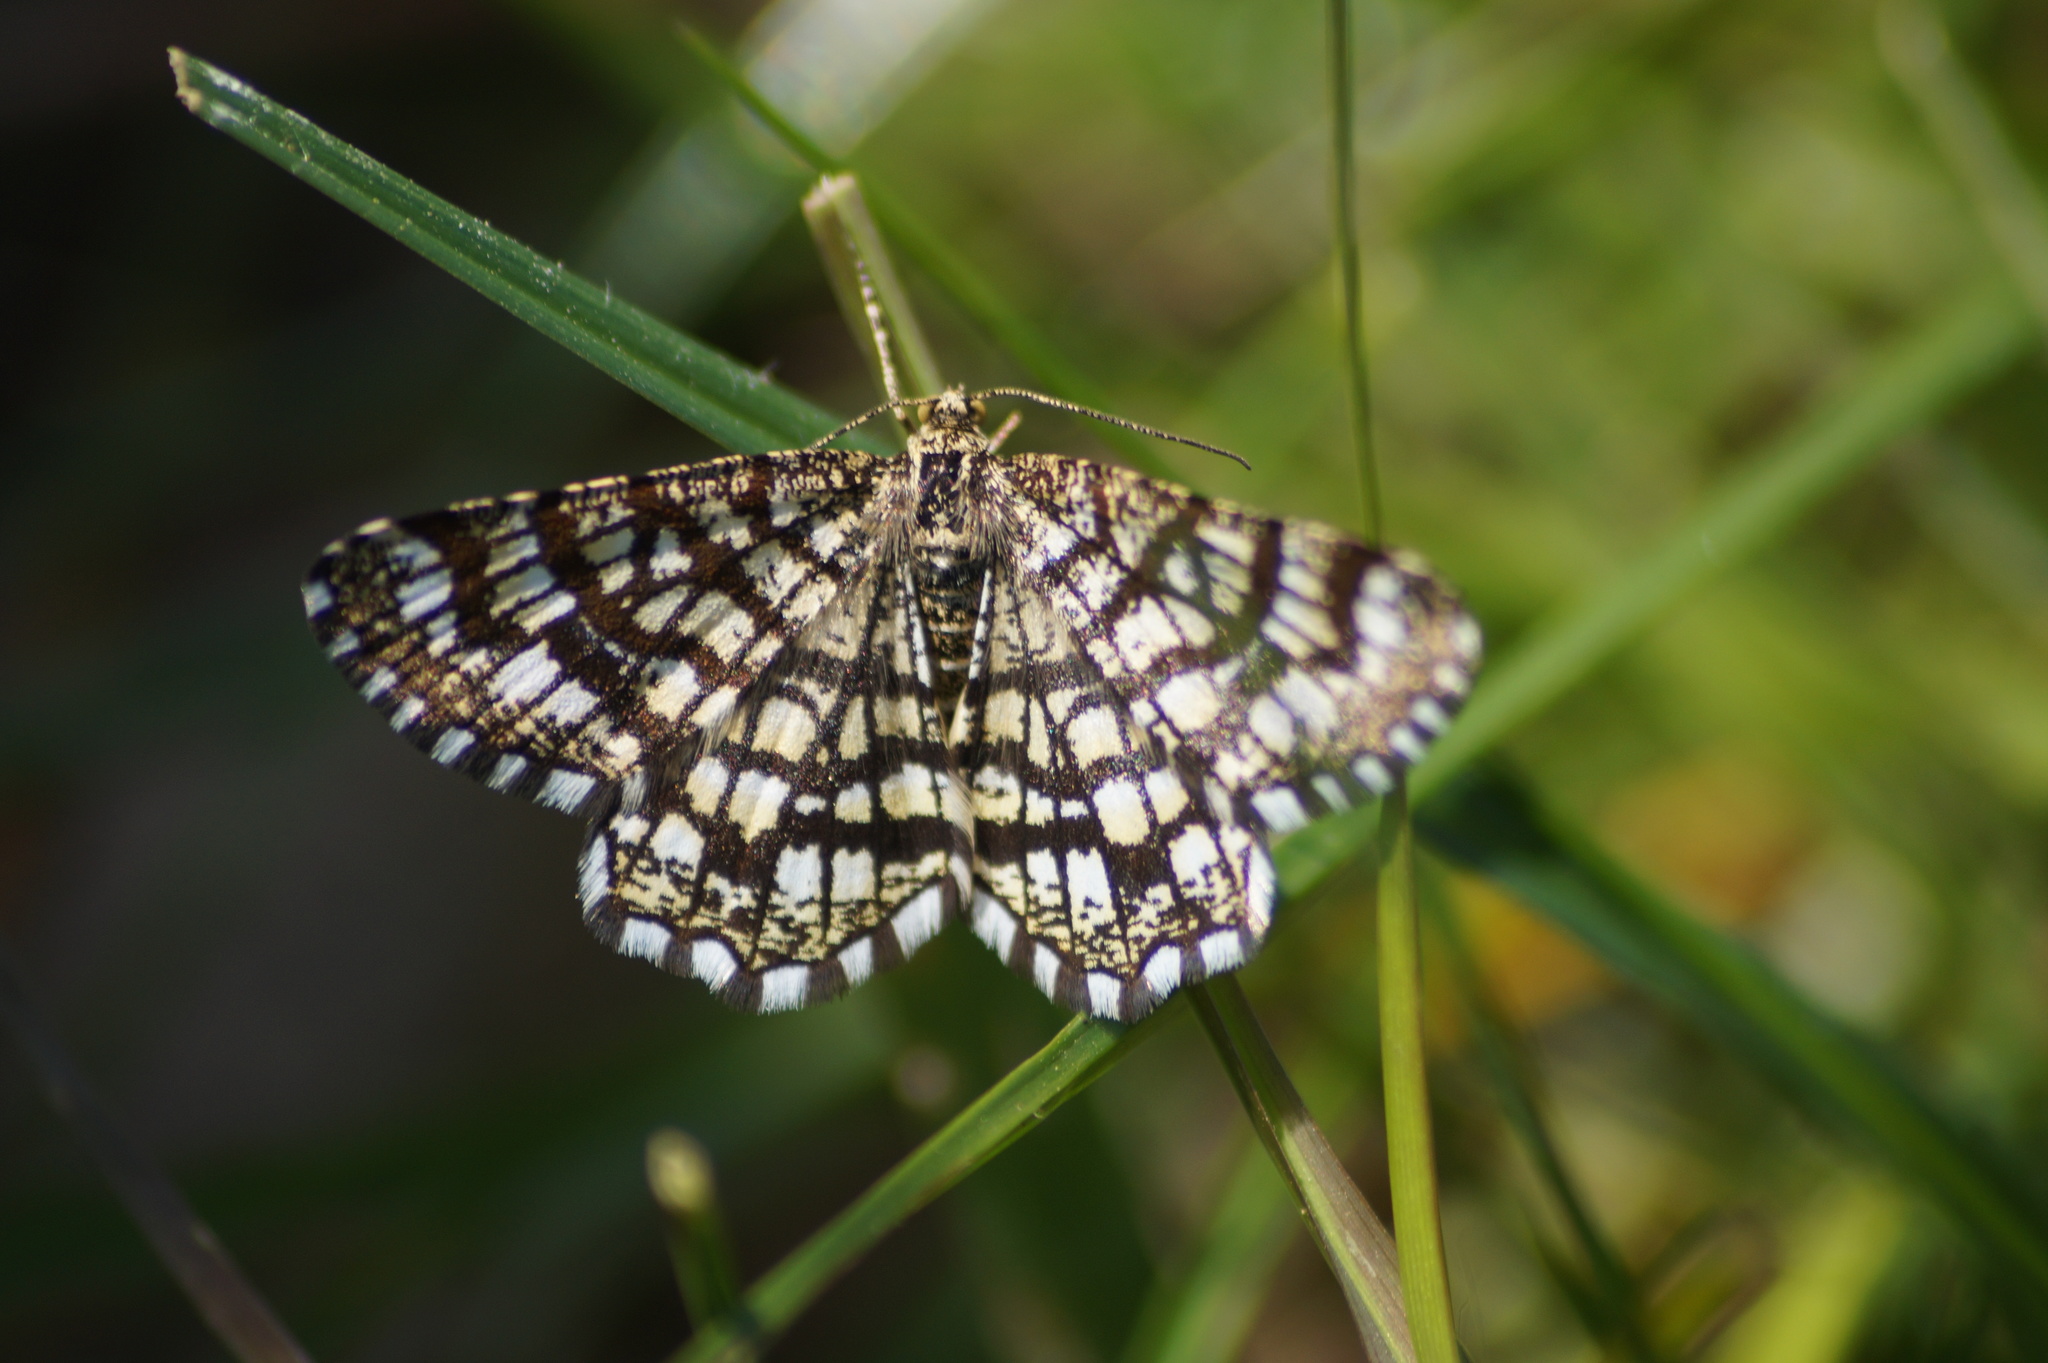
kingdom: Animalia
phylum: Arthropoda
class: Insecta
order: Lepidoptera
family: Geometridae
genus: Chiasmia
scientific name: Chiasmia clathrata
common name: Latticed heath
